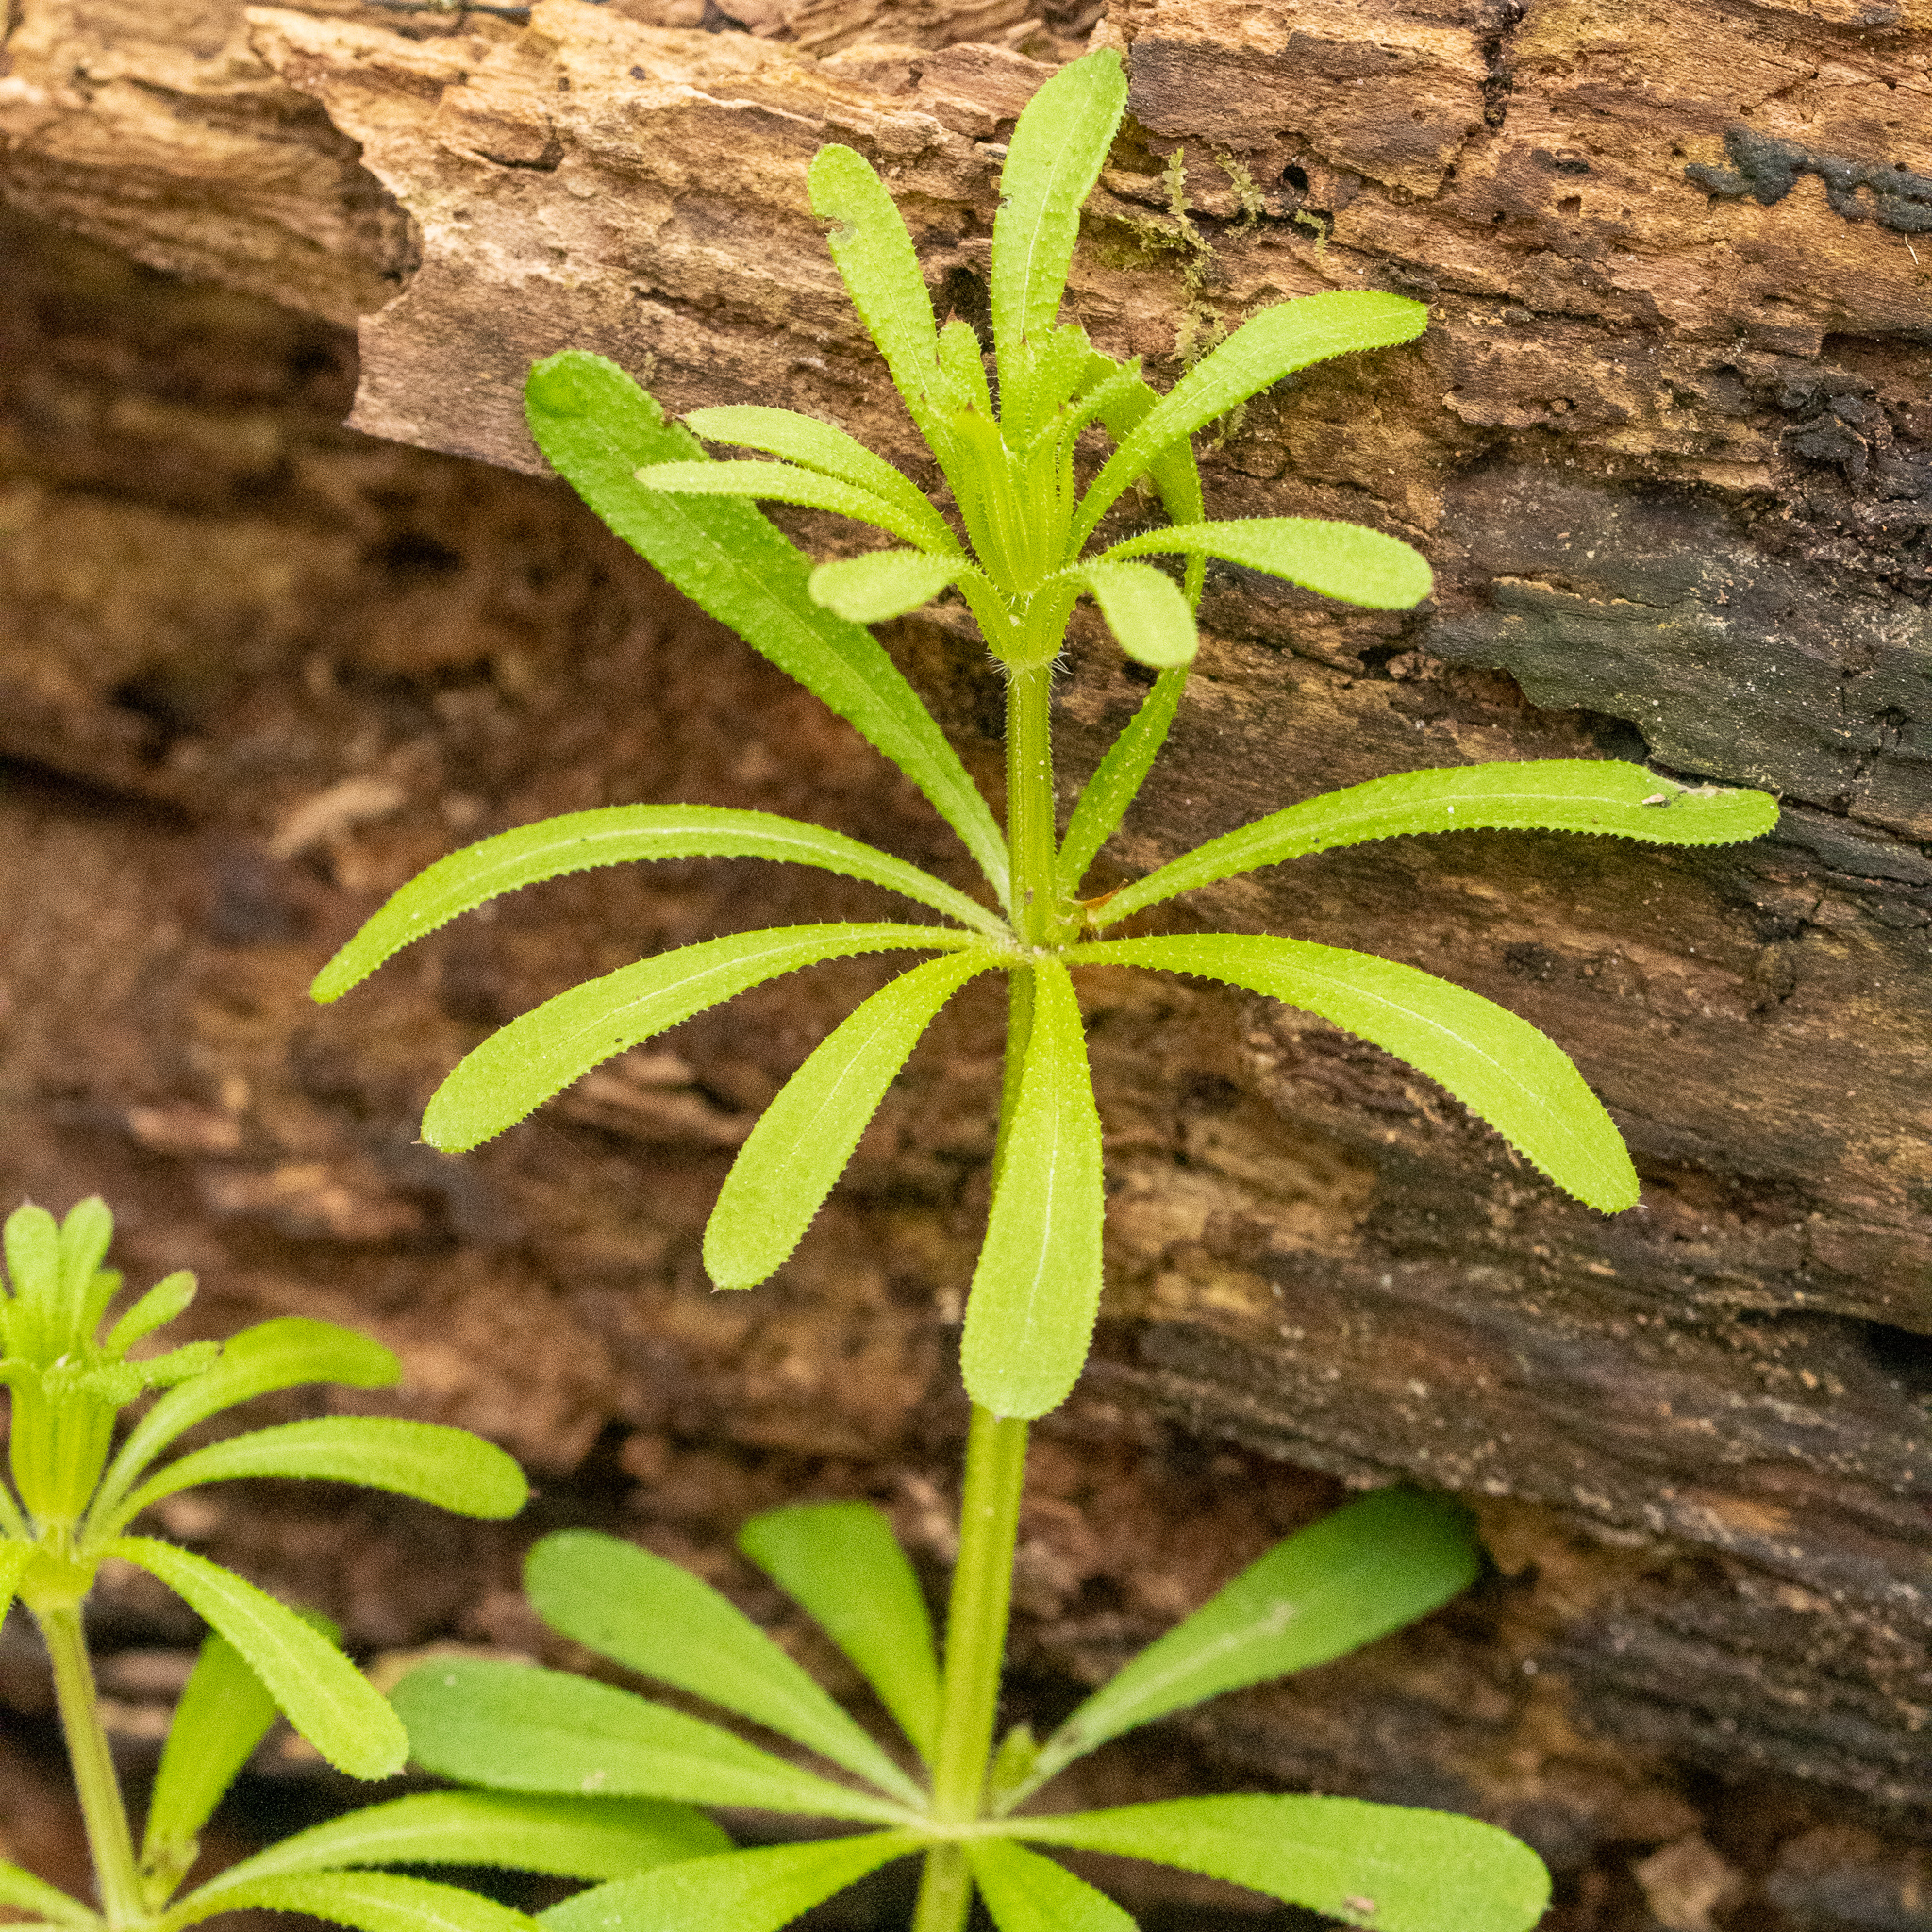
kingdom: Plantae
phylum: Tracheophyta
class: Magnoliopsida
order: Gentianales
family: Rubiaceae
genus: Galium
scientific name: Galium aparine
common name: Cleavers
